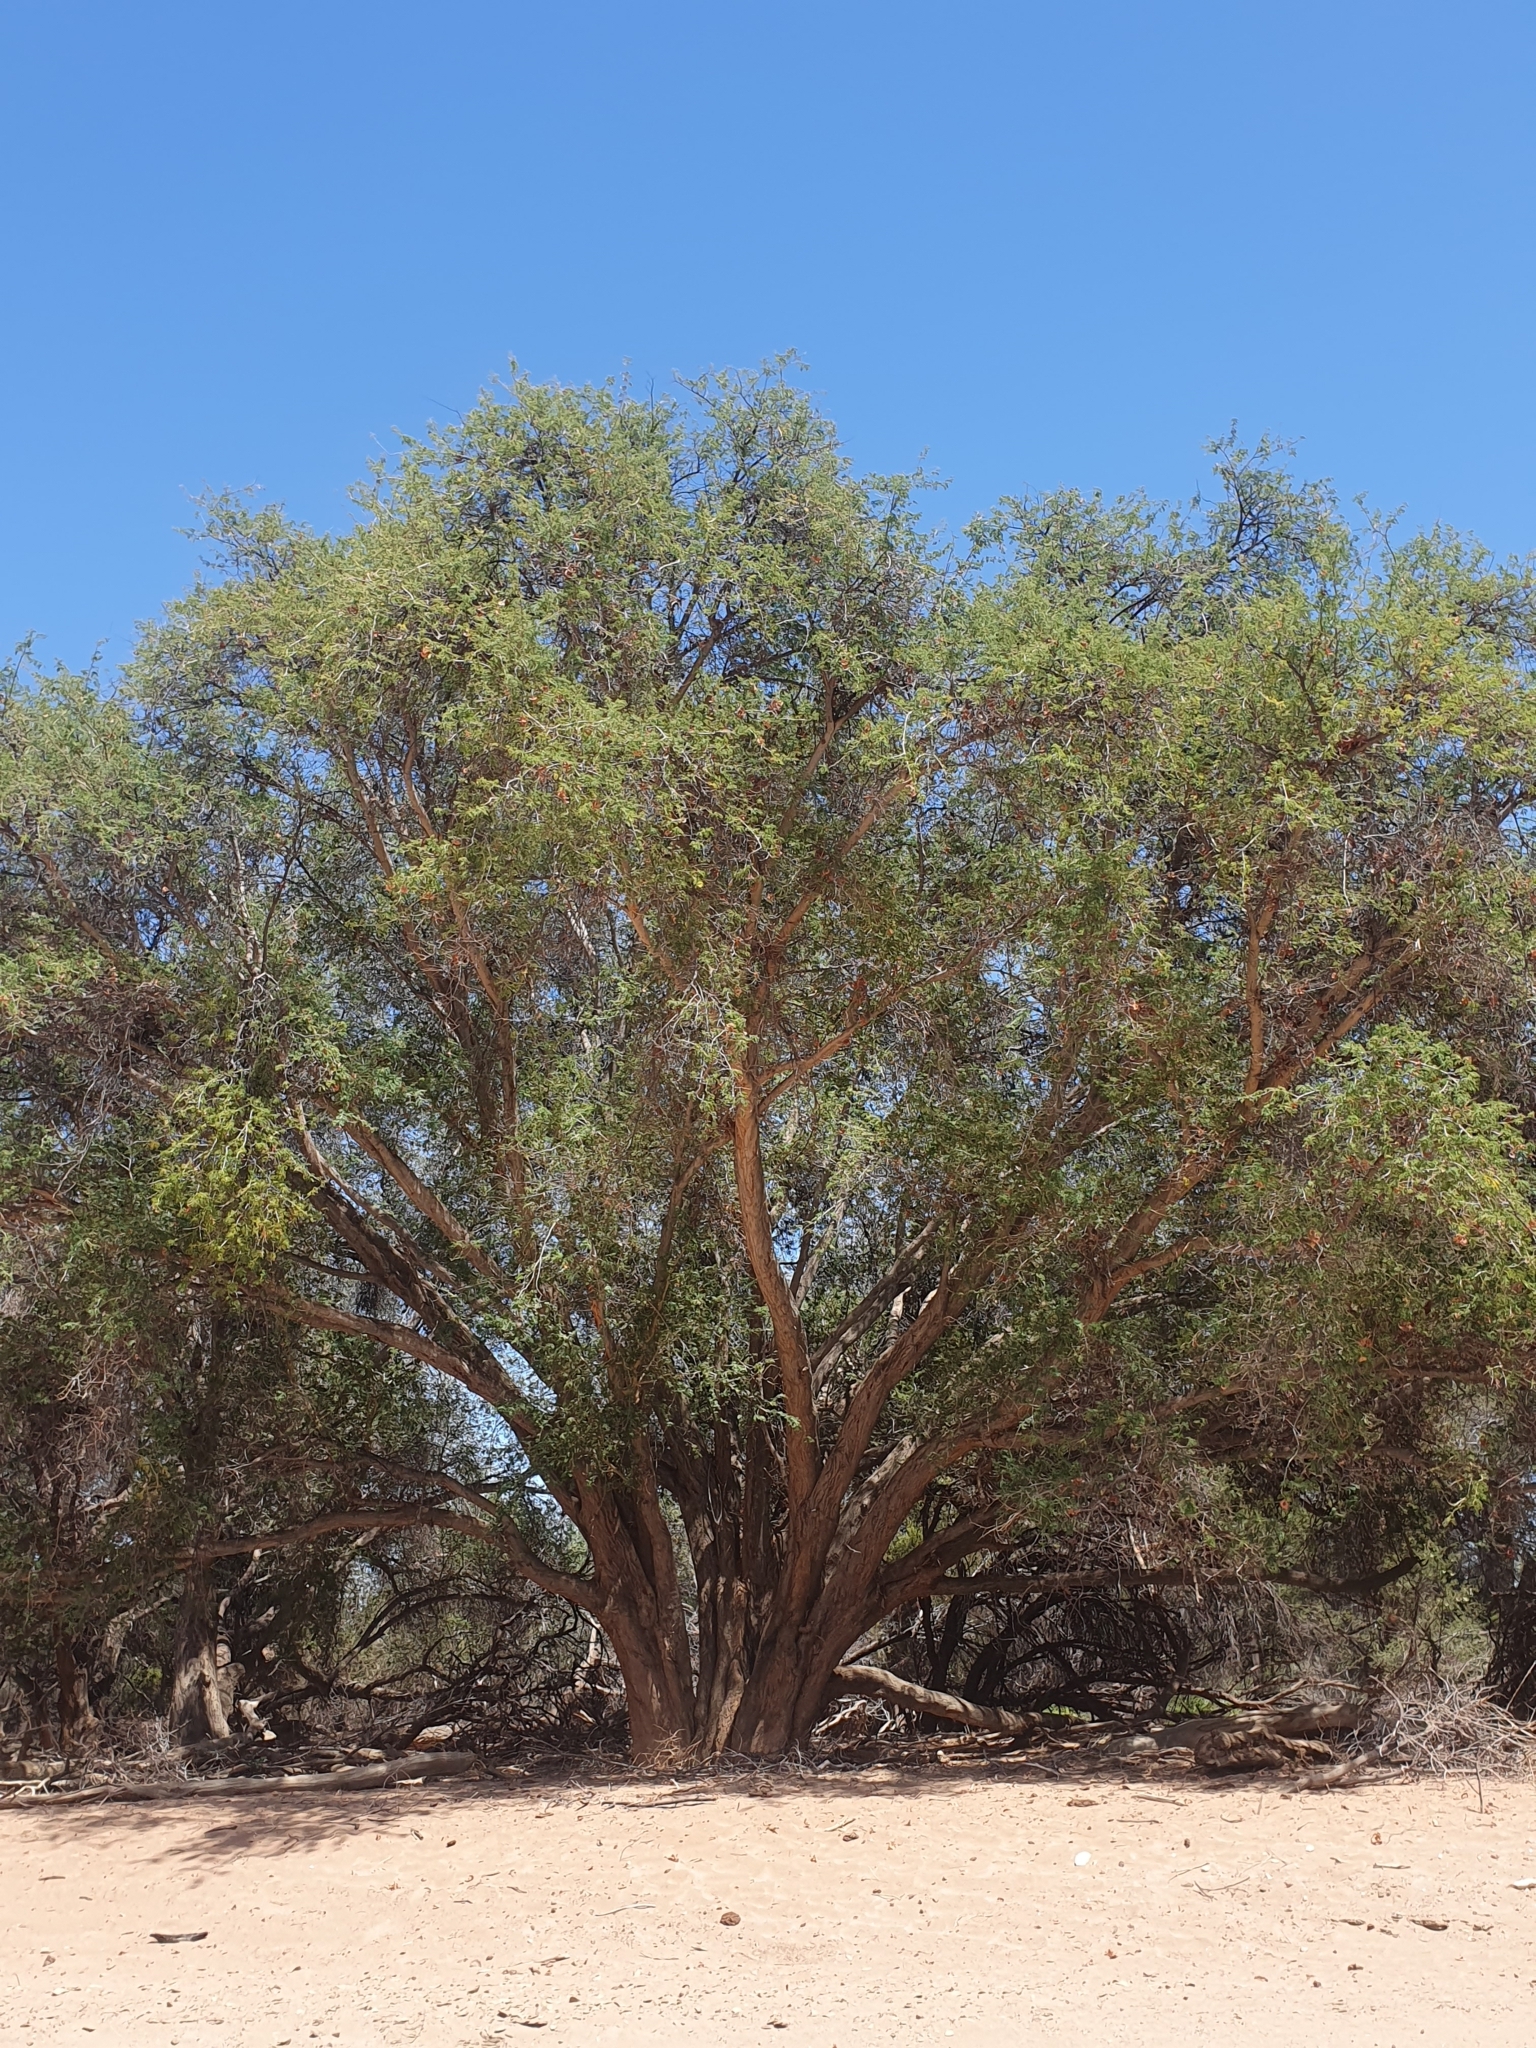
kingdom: Plantae
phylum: Tracheophyta
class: Magnoliopsida
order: Fabales
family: Fabaceae
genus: Faidherbia
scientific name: Faidherbia albida
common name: Anatree
